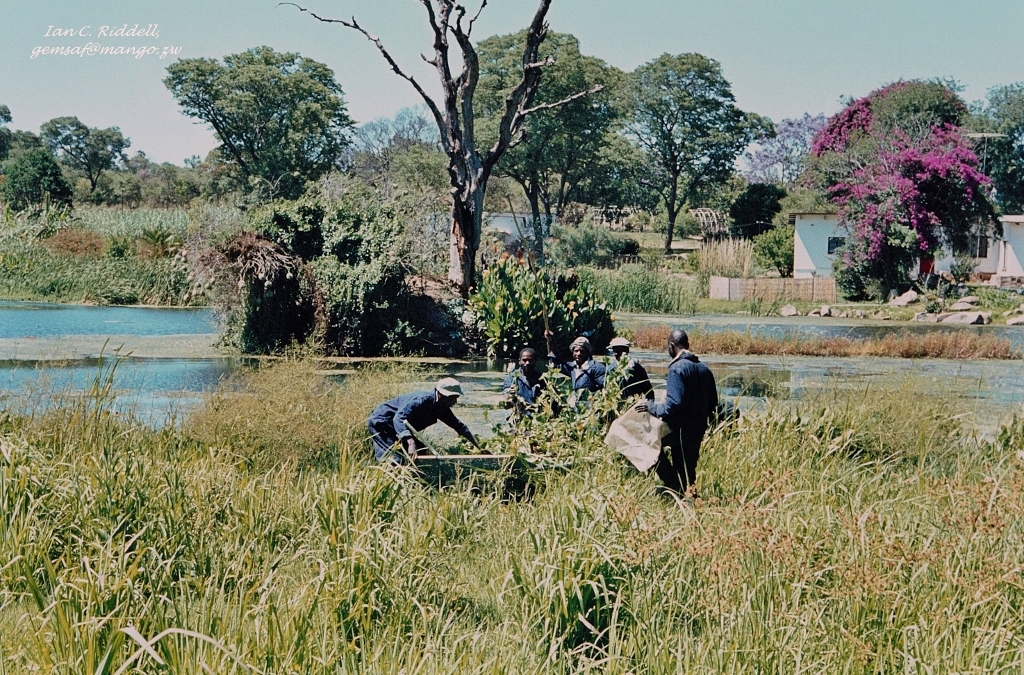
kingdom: Plantae
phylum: Tracheophyta
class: Liliopsida
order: Commelinales
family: Pontederiaceae
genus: Pontederia
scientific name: Pontederia crassipes
